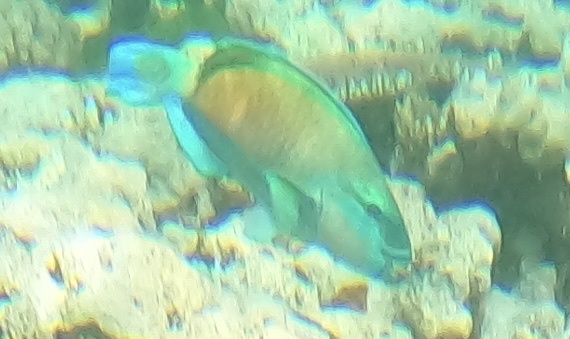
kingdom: Animalia
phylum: Chordata
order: Perciformes
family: Scaridae
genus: Chlorurus
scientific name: Chlorurus spilurus
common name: Bullethead parrotfish
